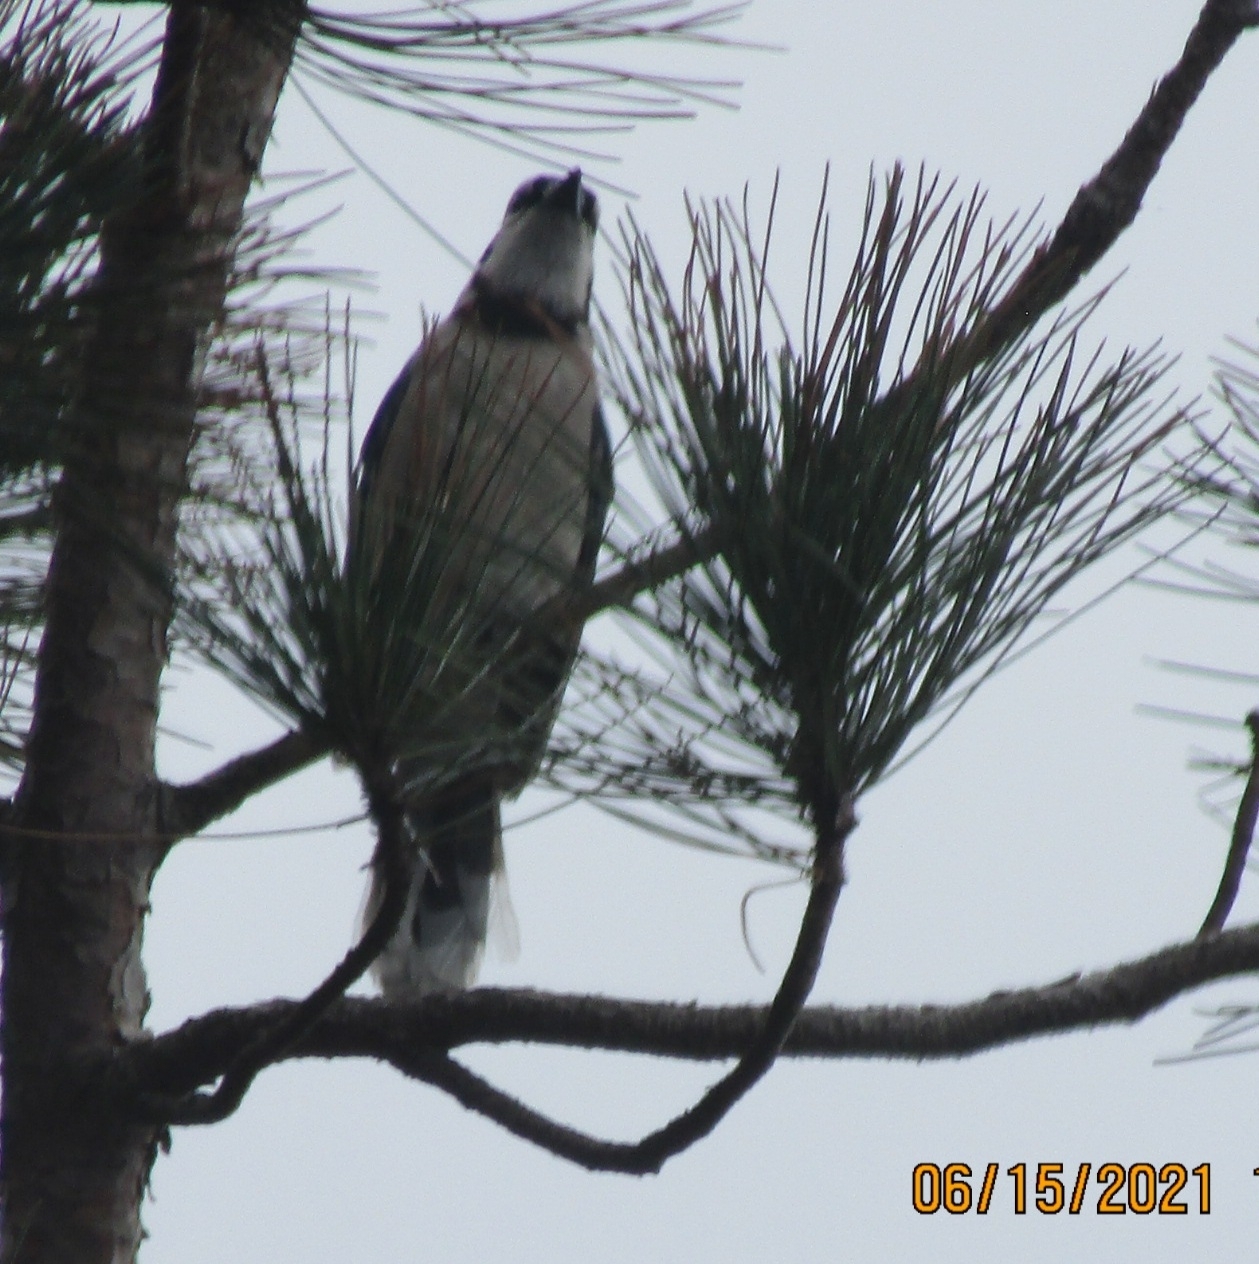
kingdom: Animalia
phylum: Chordata
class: Aves
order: Passeriformes
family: Corvidae
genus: Cyanocitta
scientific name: Cyanocitta cristata
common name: Blue jay
